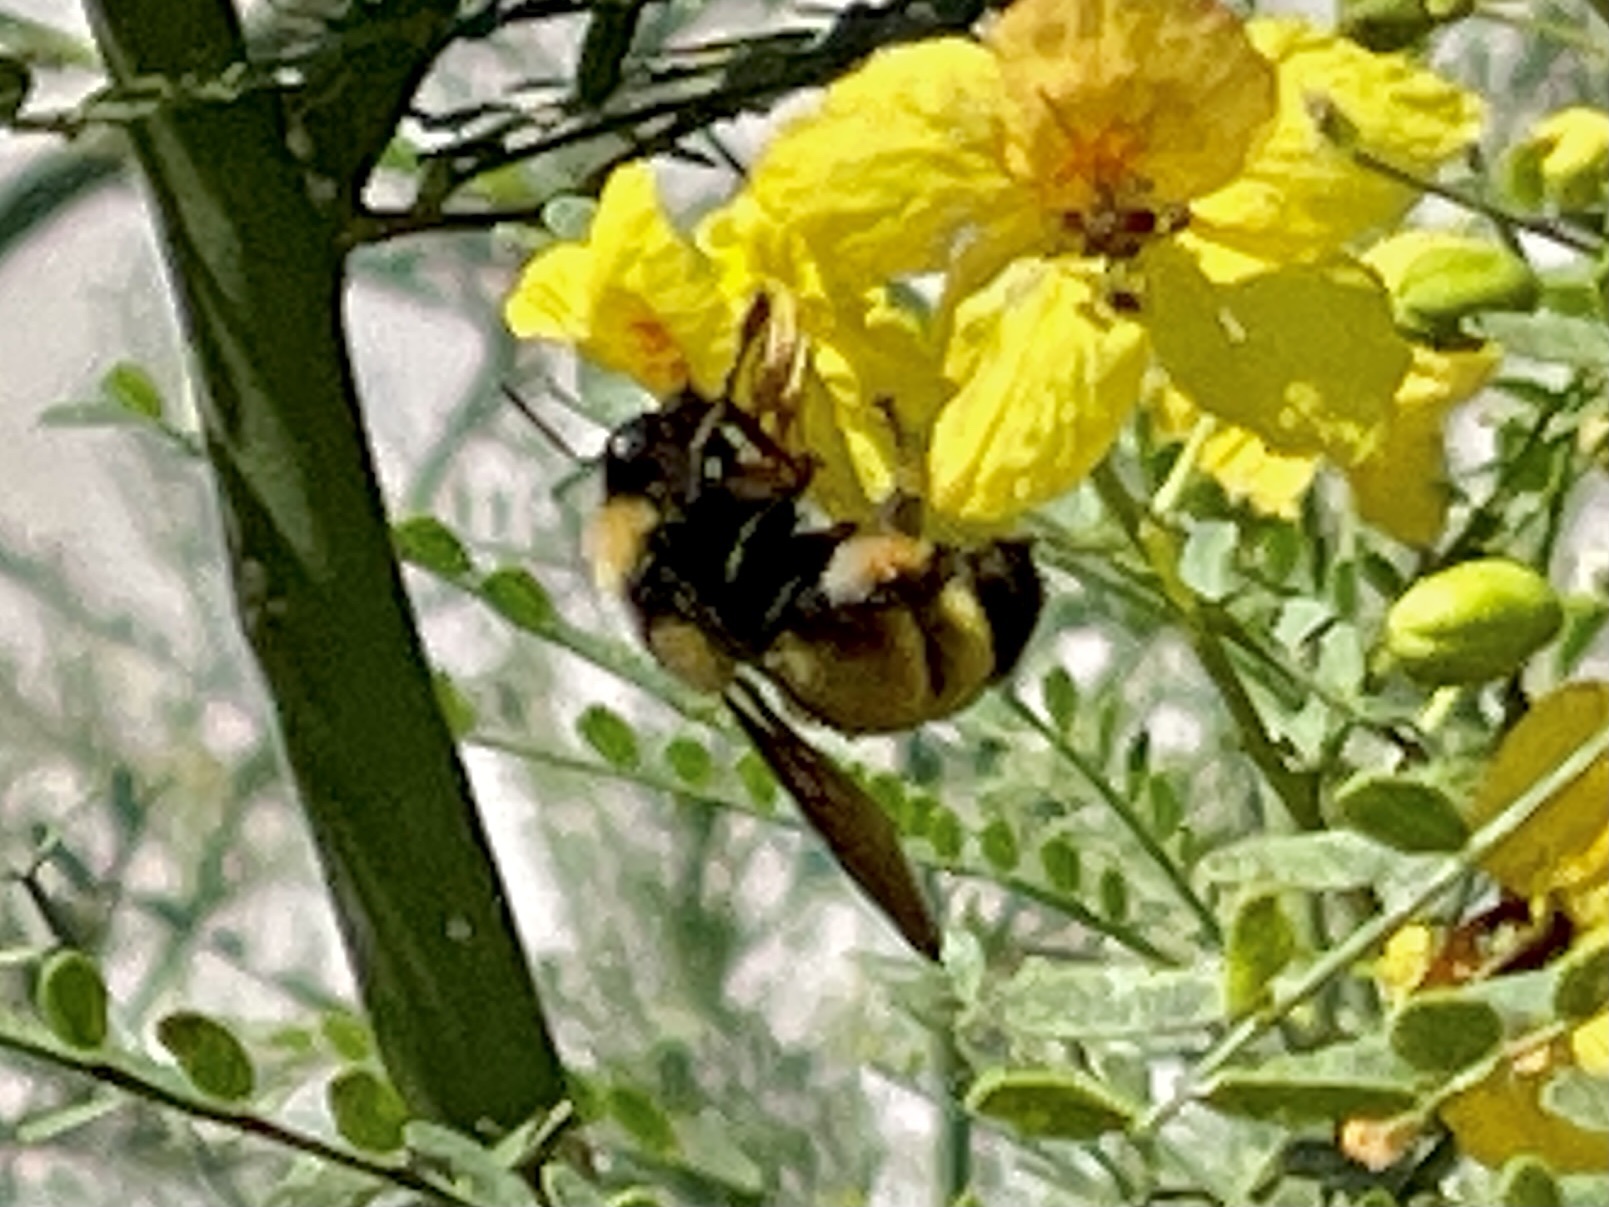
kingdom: Animalia
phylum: Arthropoda
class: Insecta
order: Hymenoptera
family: Apidae
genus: Bombus
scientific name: Bombus sonorus
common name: Sonoran bumble bee
